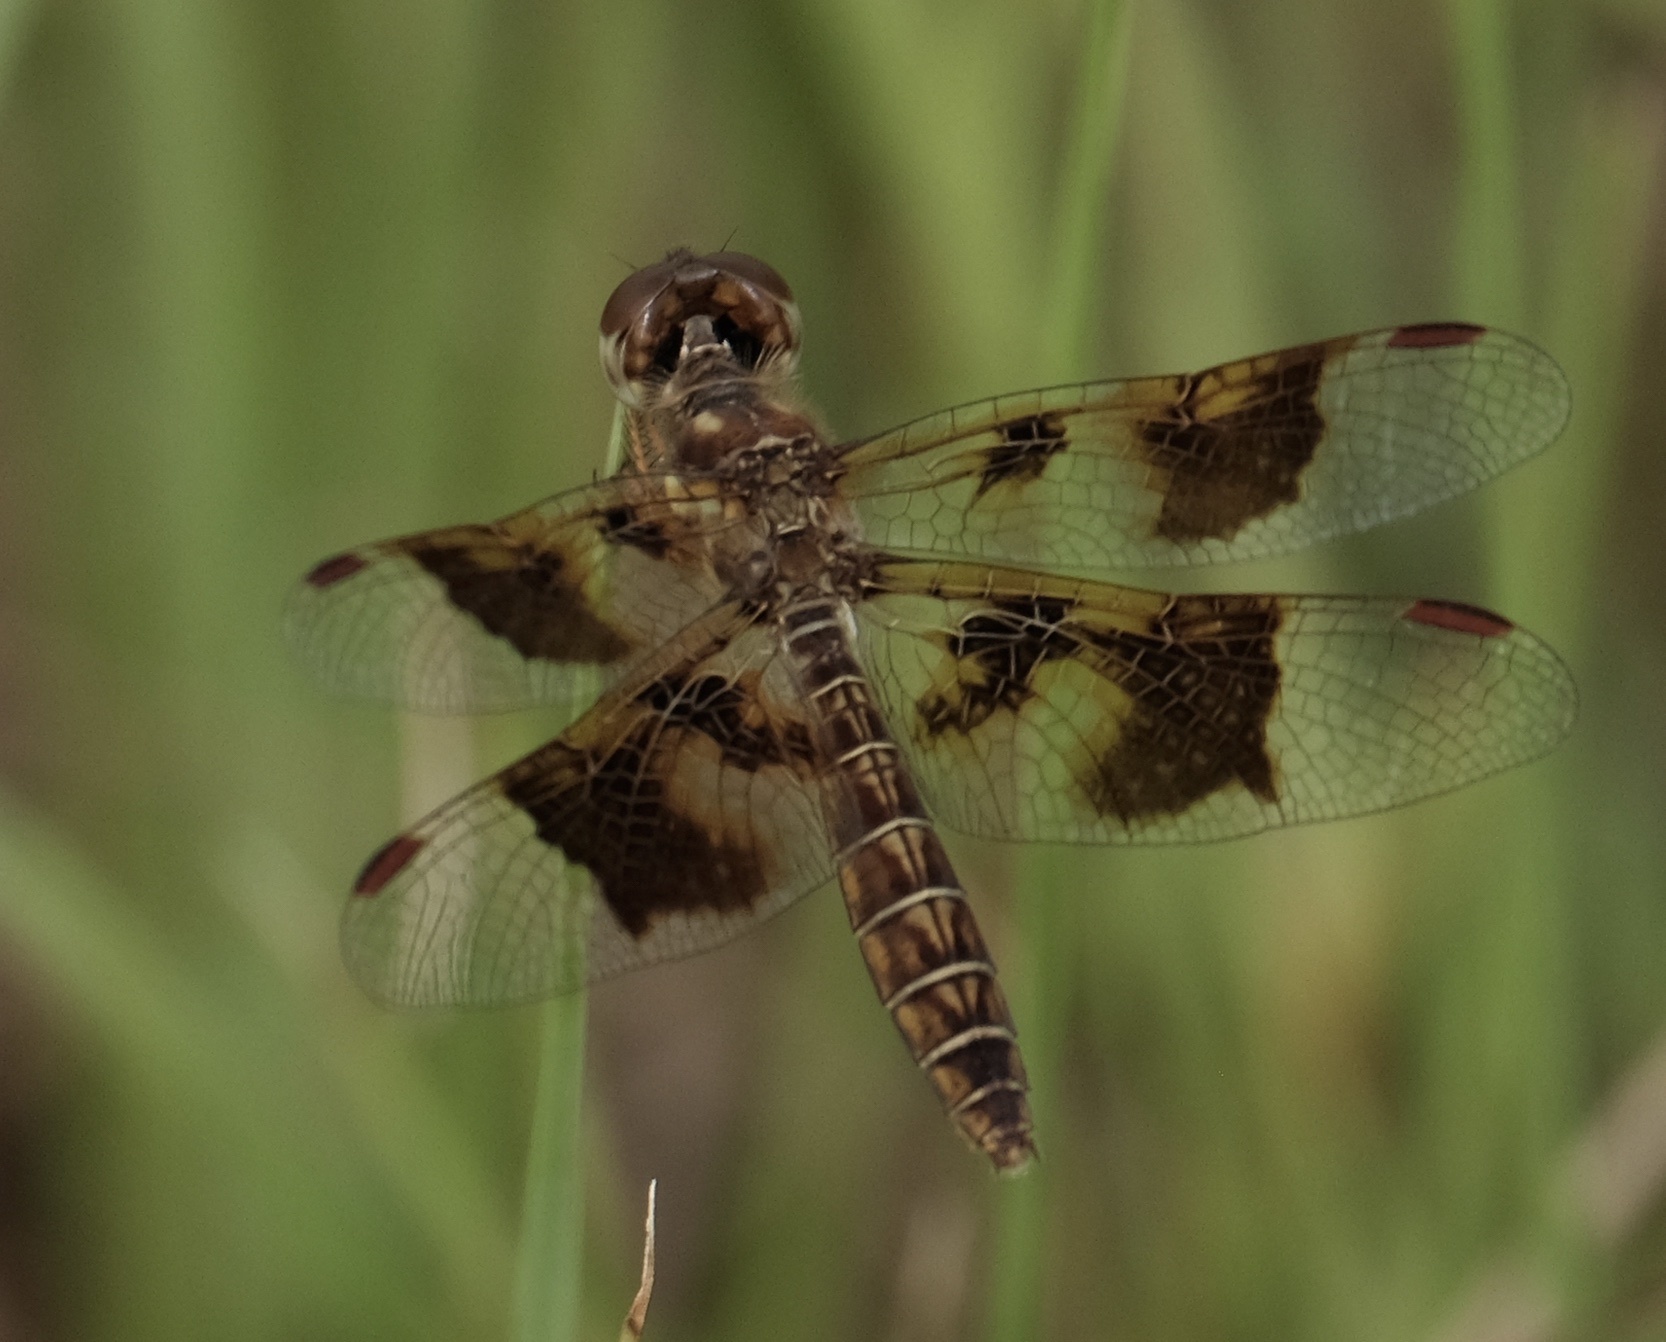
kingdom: Animalia
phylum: Arthropoda
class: Insecta
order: Odonata
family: Libellulidae
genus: Perithemis
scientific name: Perithemis tenera
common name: Eastern amberwing
